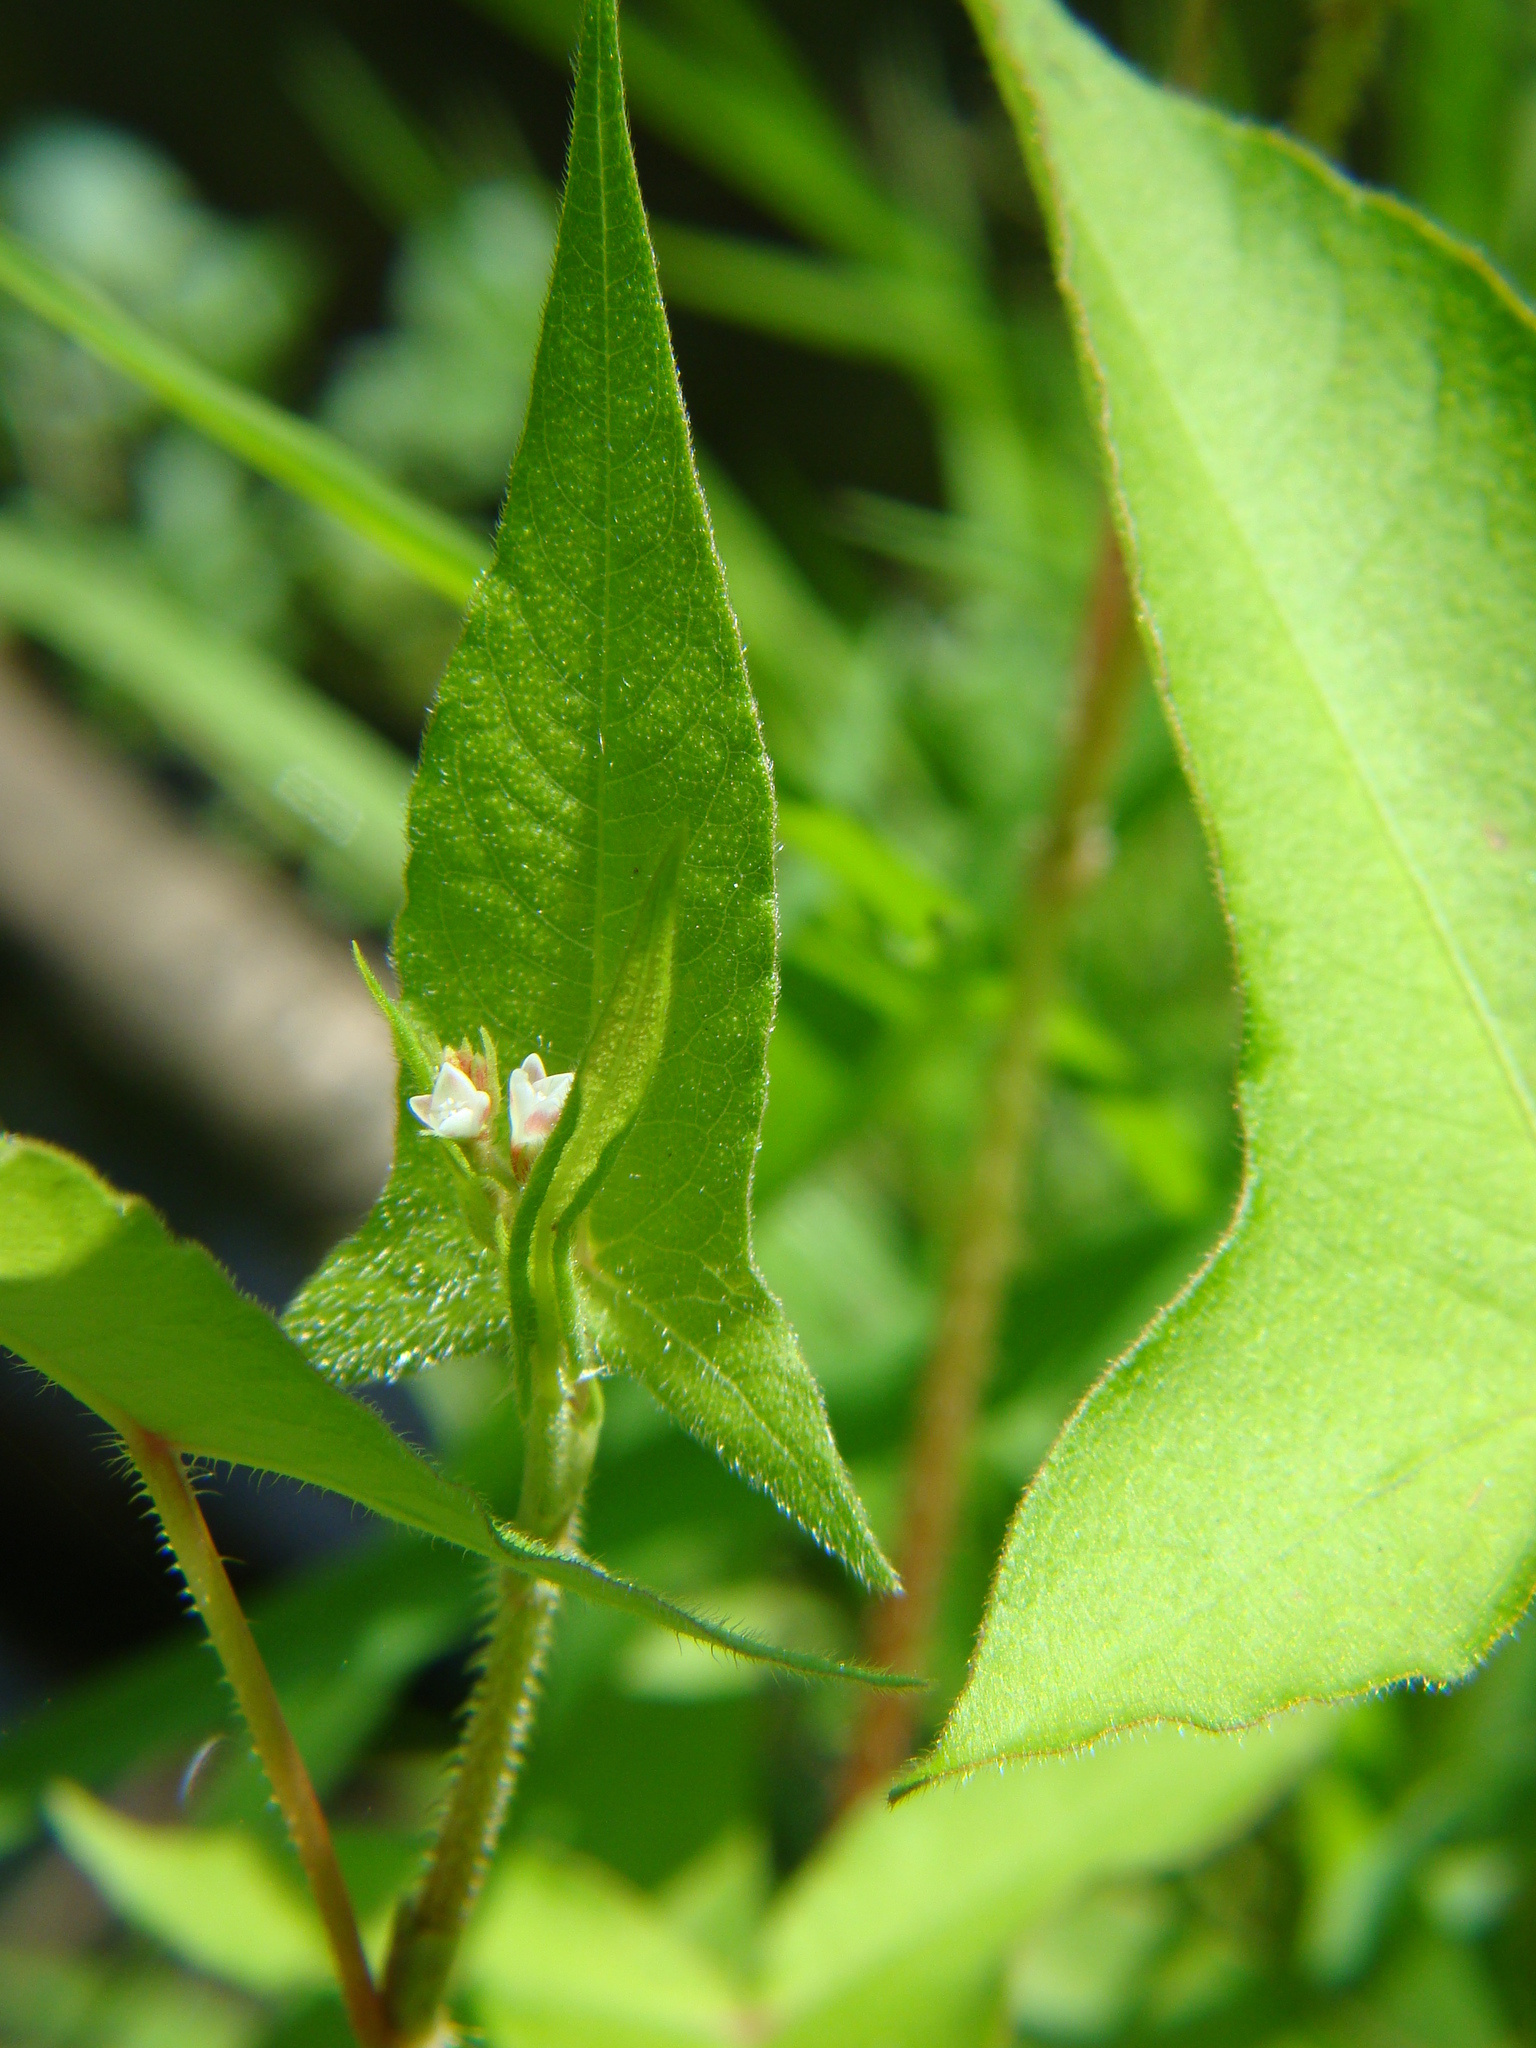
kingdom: Plantae
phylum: Tracheophyta
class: Magnoliopsida
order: Caryophyllales
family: Polygonaceae
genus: Persicaria
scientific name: Persicaria arifolia
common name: Halberd-leaved tear-thumb
